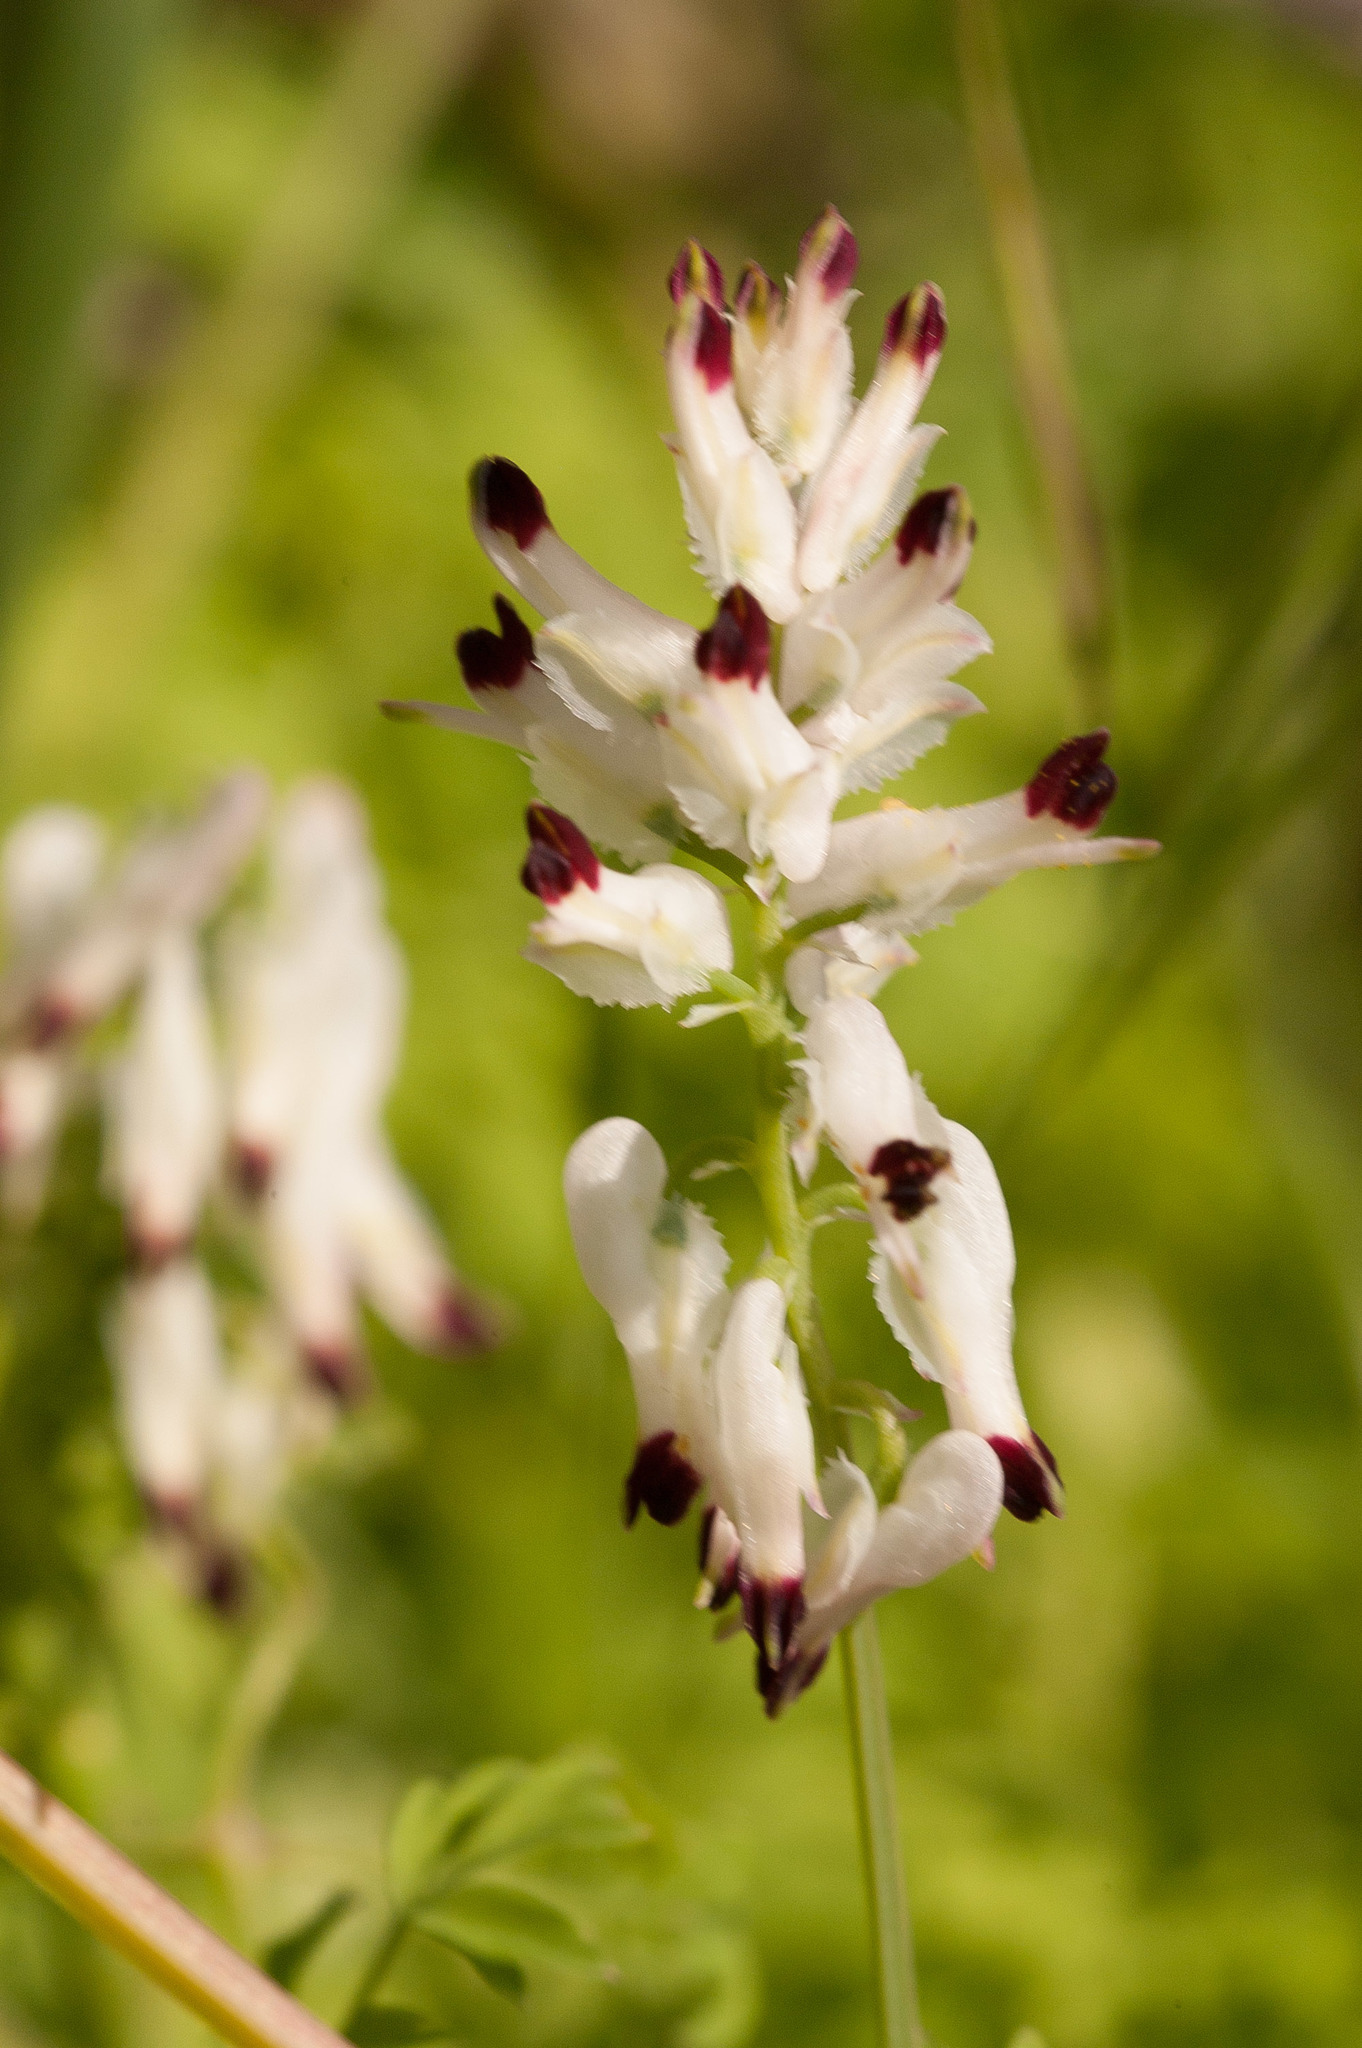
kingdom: Plantae
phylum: Tracheophyta
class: Magnoliopsida
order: Ranunculales
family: Papaveraceae
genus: Fumaria
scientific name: Fumaria capreolata
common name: White ramping-fumitory
